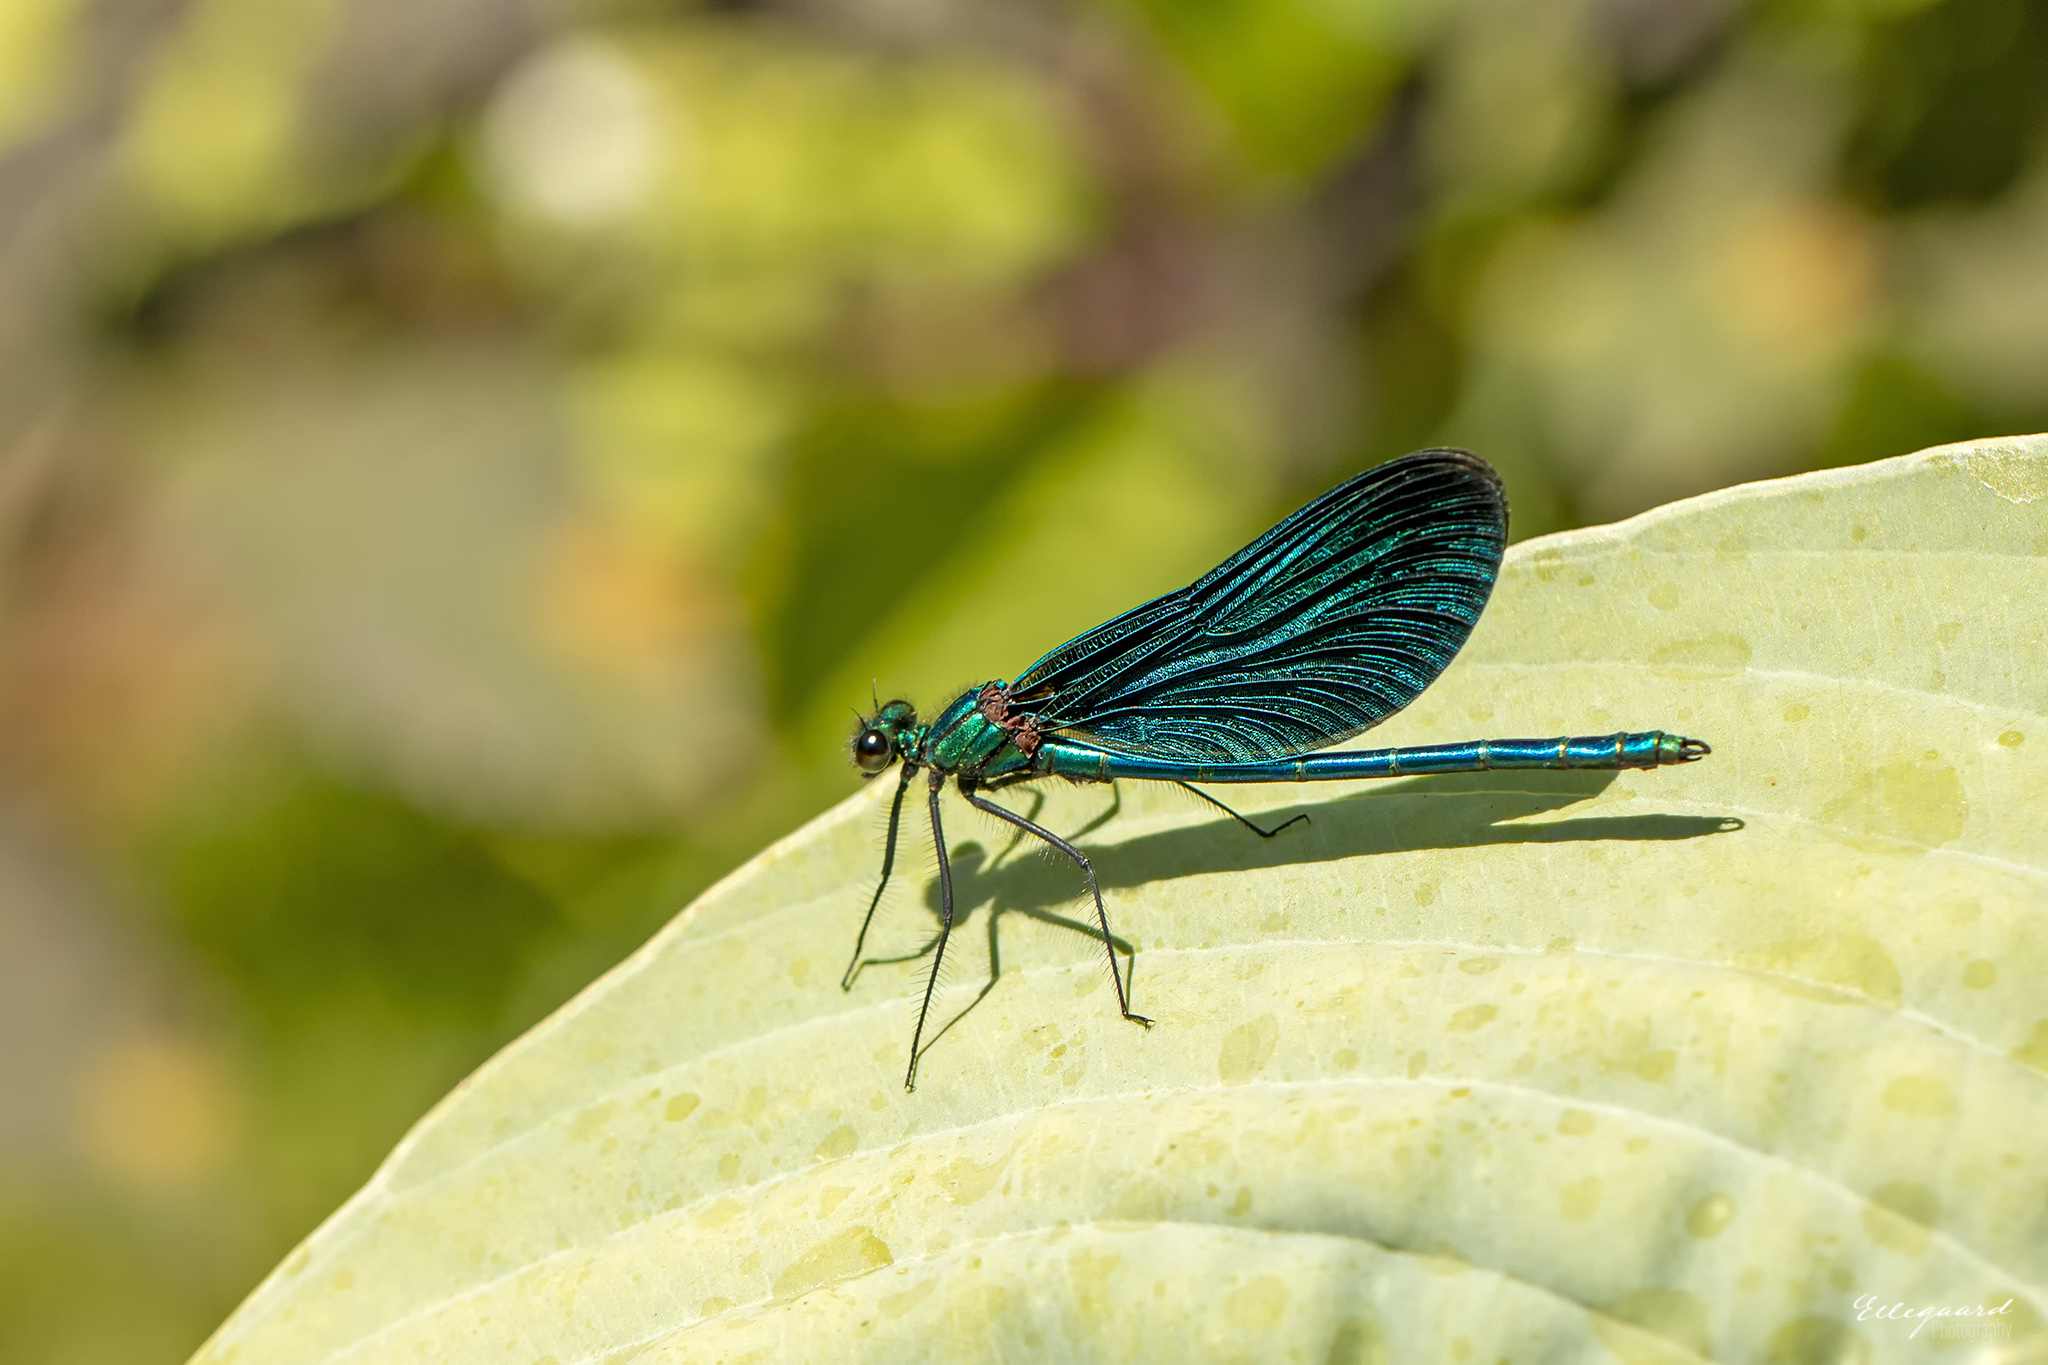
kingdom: Animalia
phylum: Arthropoda
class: Insecta
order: Odonata
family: Calopterygidae
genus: Calopteryx
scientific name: Calopteryx virgo
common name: Beautiful demoiselle
